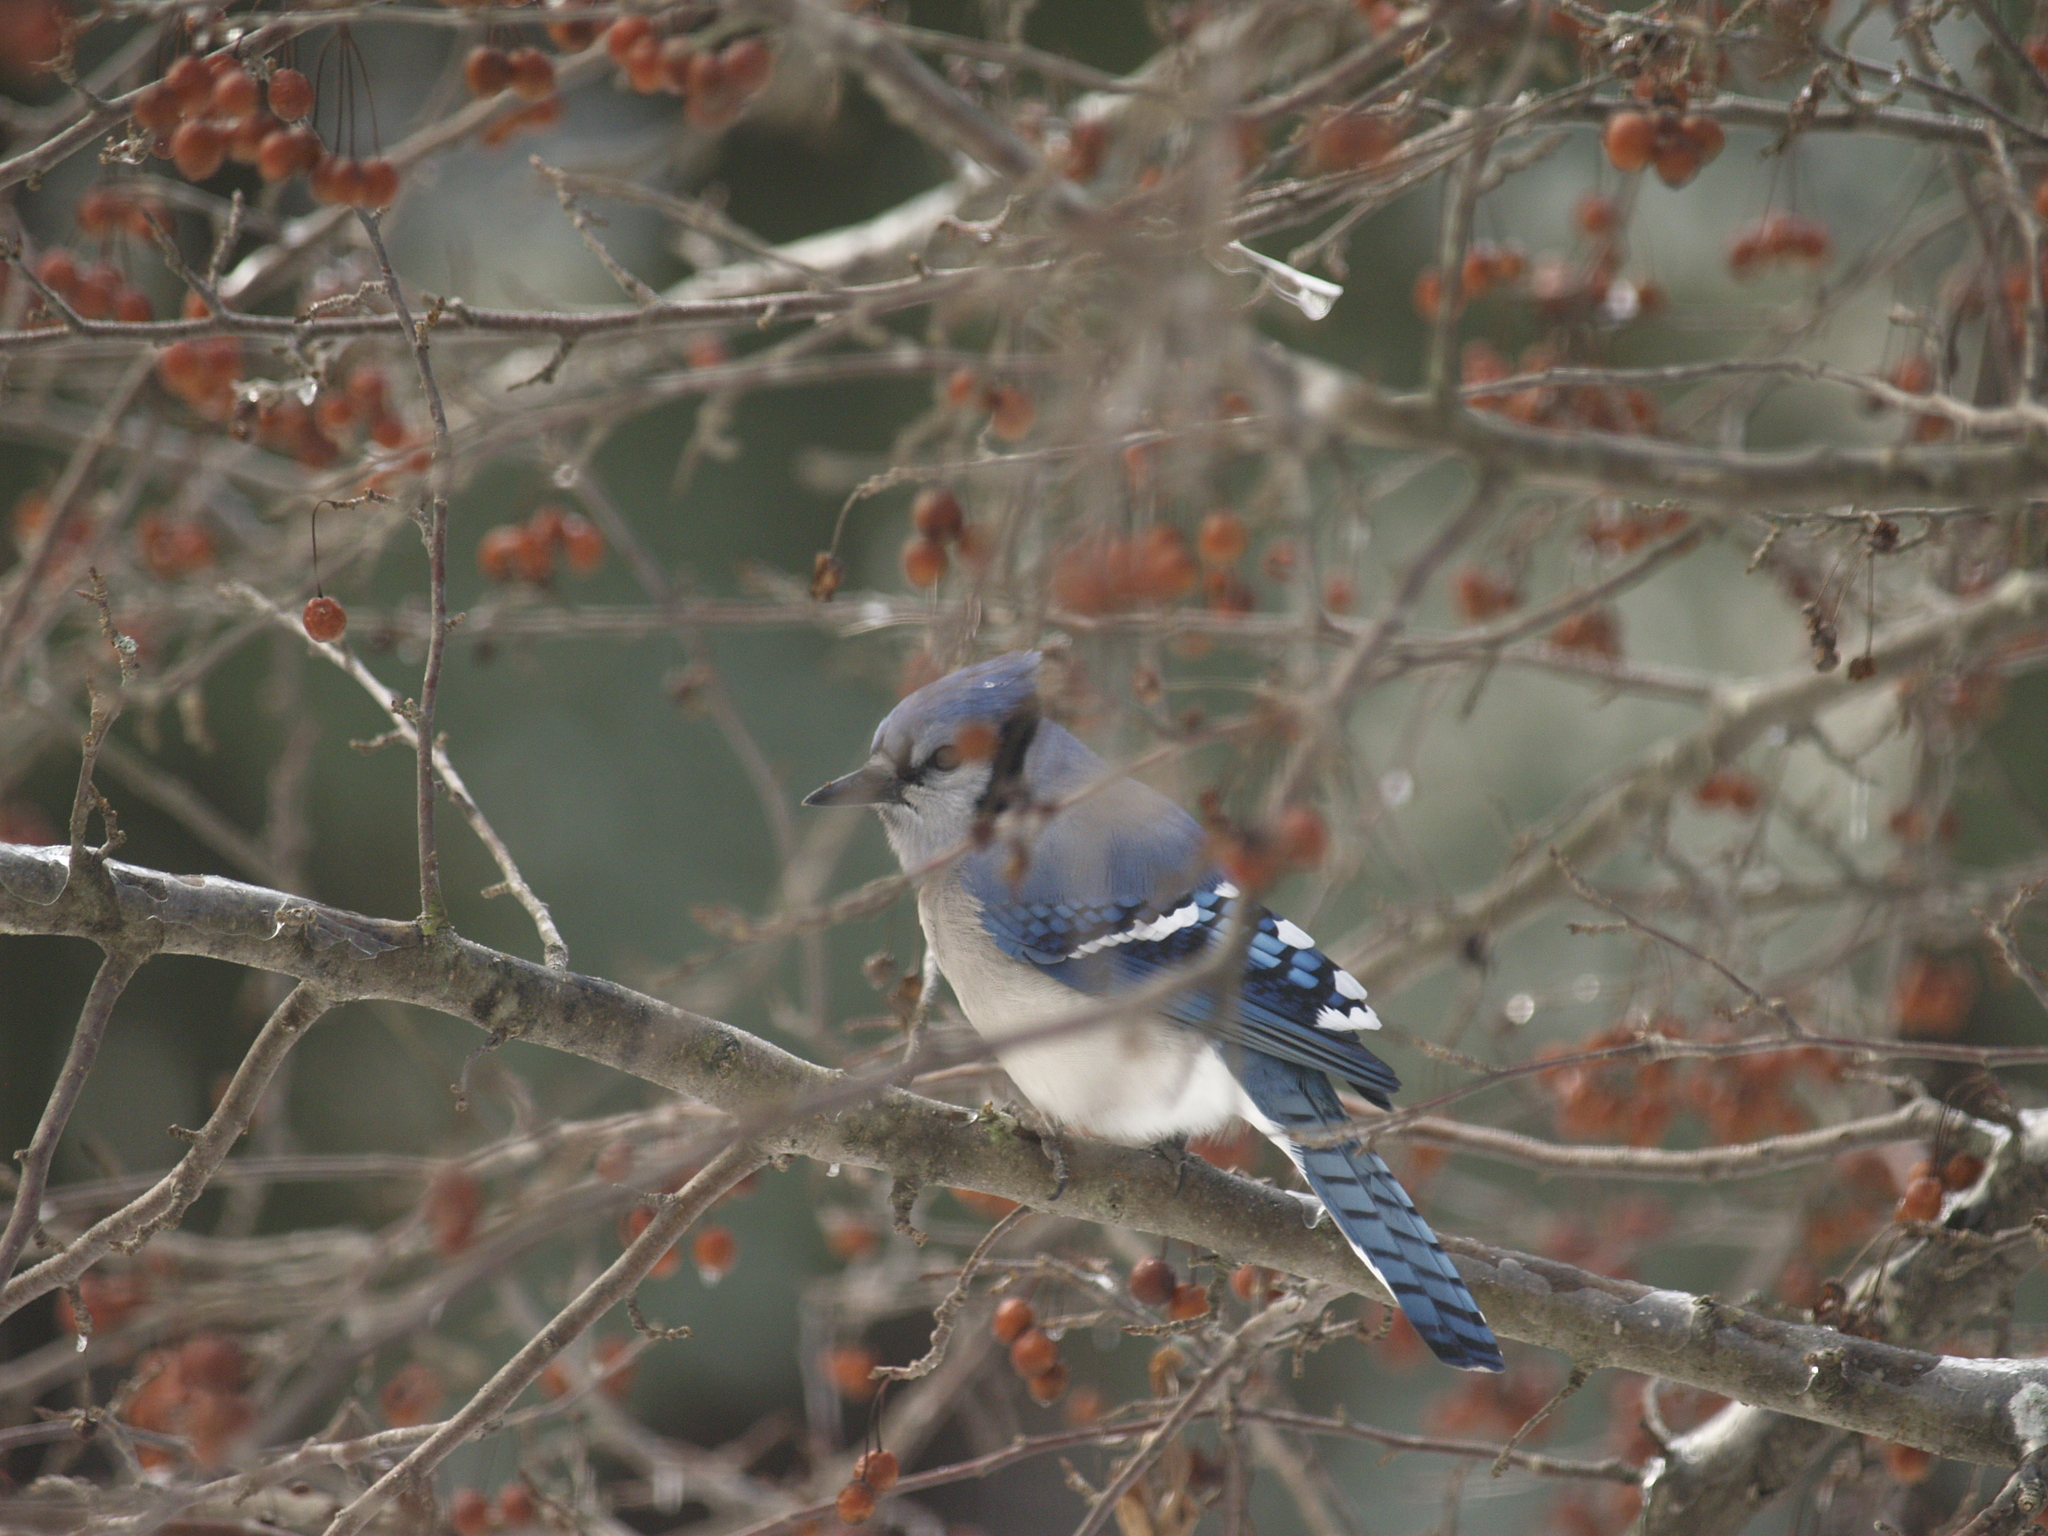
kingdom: Animalia
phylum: Chordata
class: Aves
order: Passeriformes
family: Corvidae
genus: Cyanocitta
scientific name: Cyanocitta cristata
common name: Blue jay
